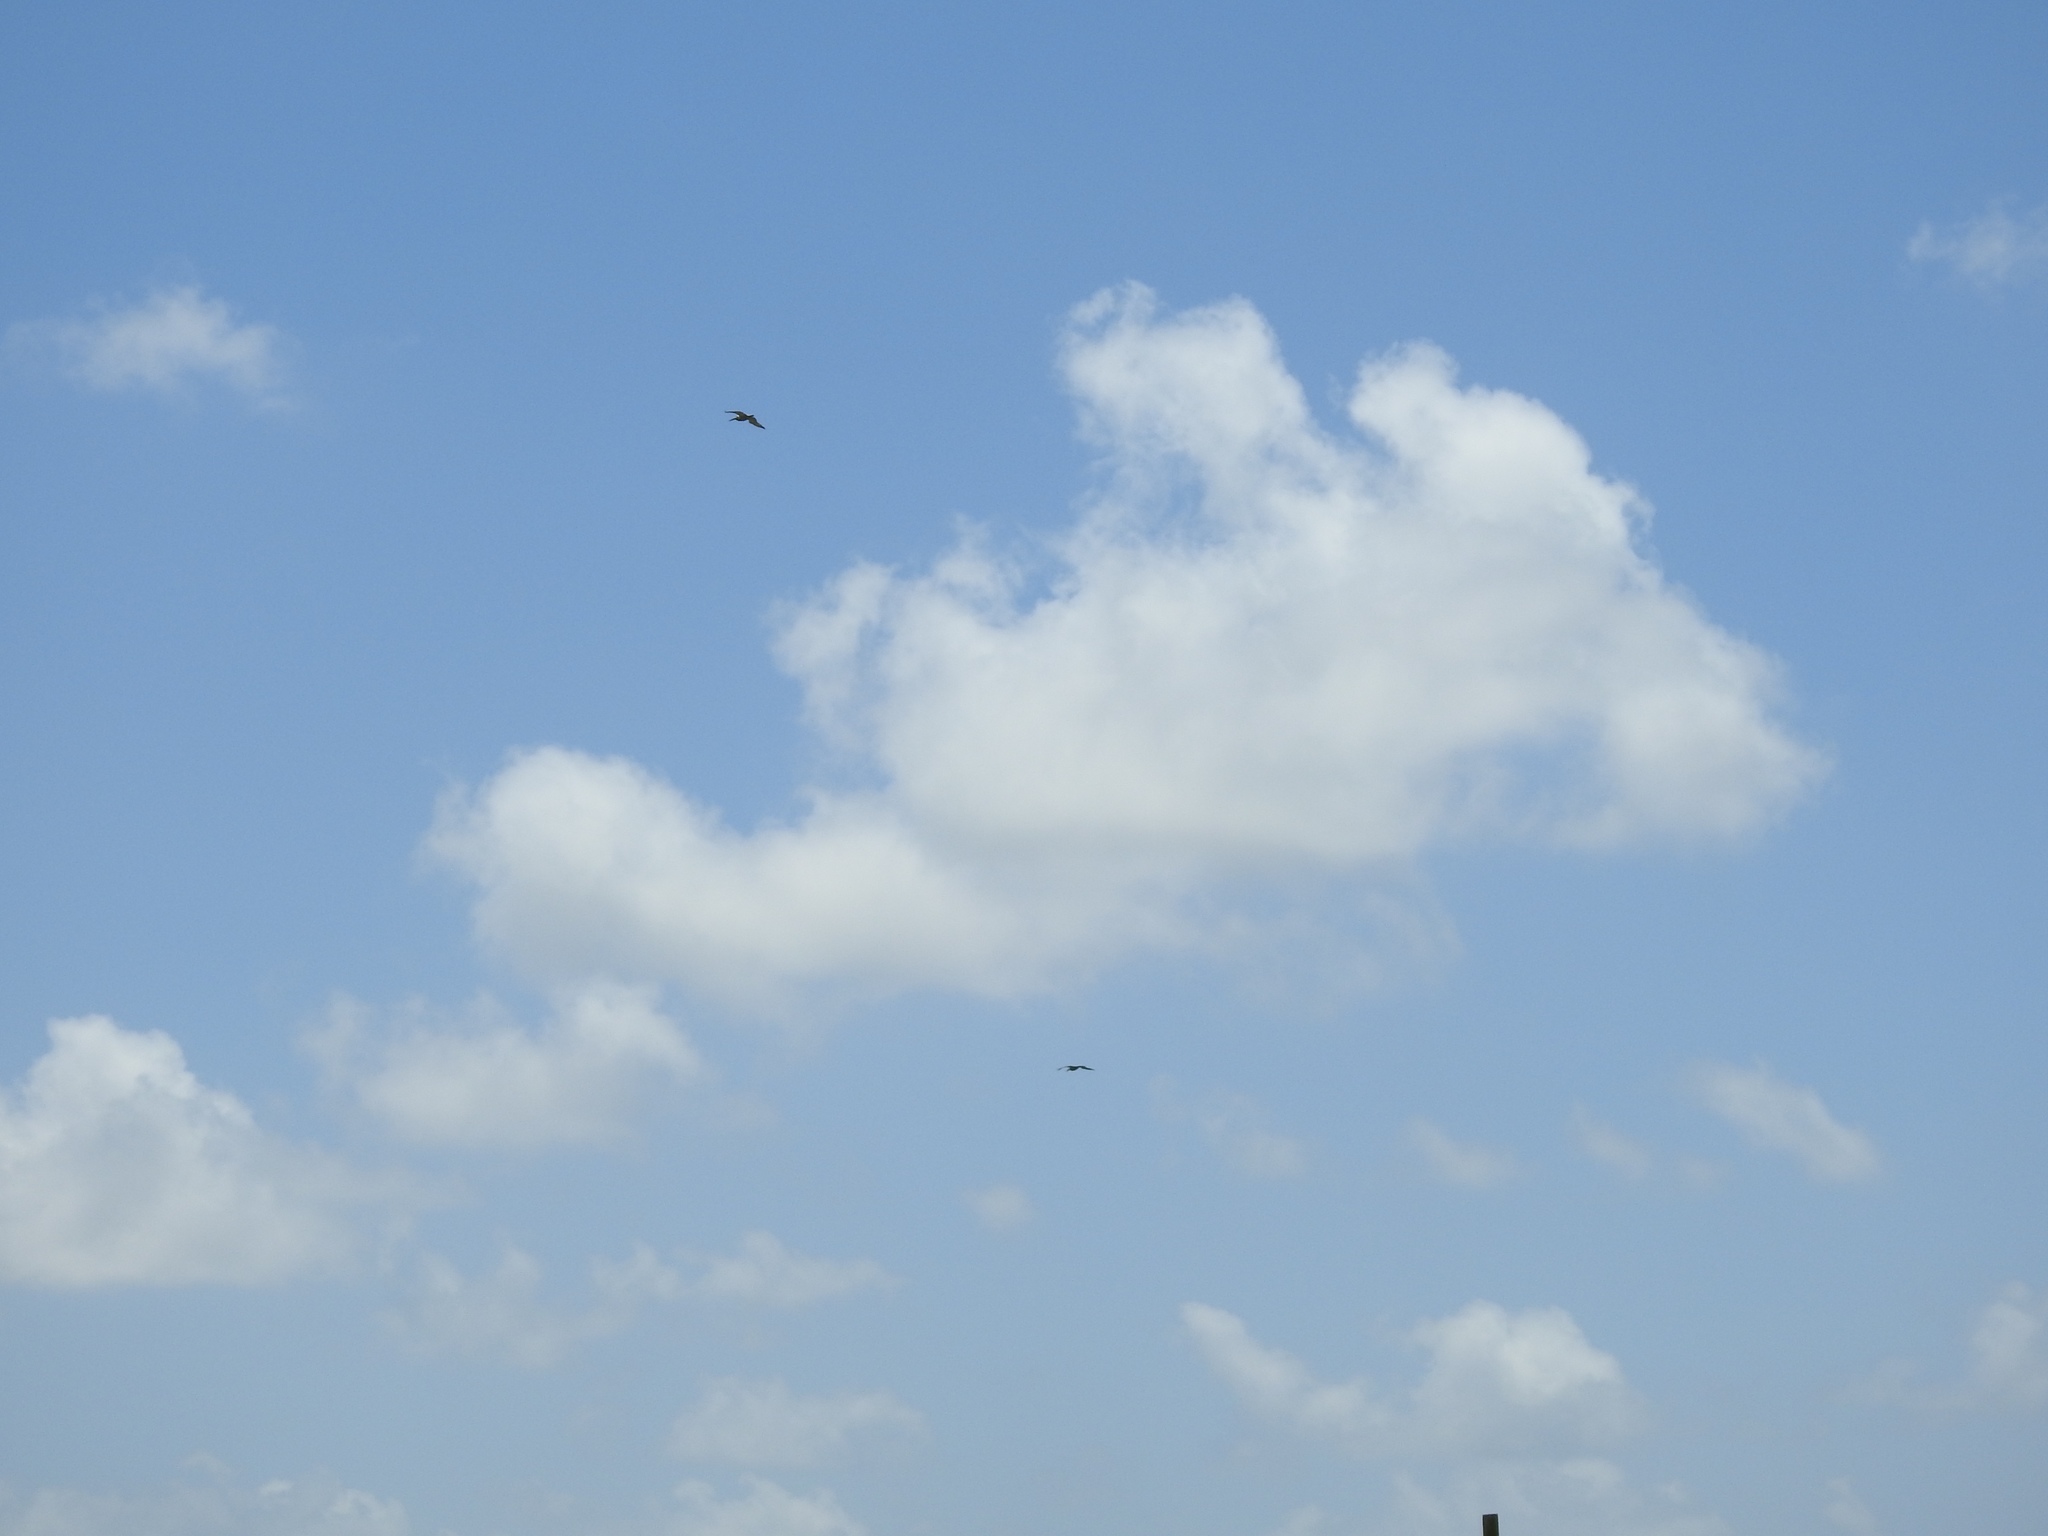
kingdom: Animalia
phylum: Chordata
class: Aves
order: Pelecaniformes
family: Pelecanidae
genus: Pelecanus
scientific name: Pelecanus occidentalis
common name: Brown pelican
